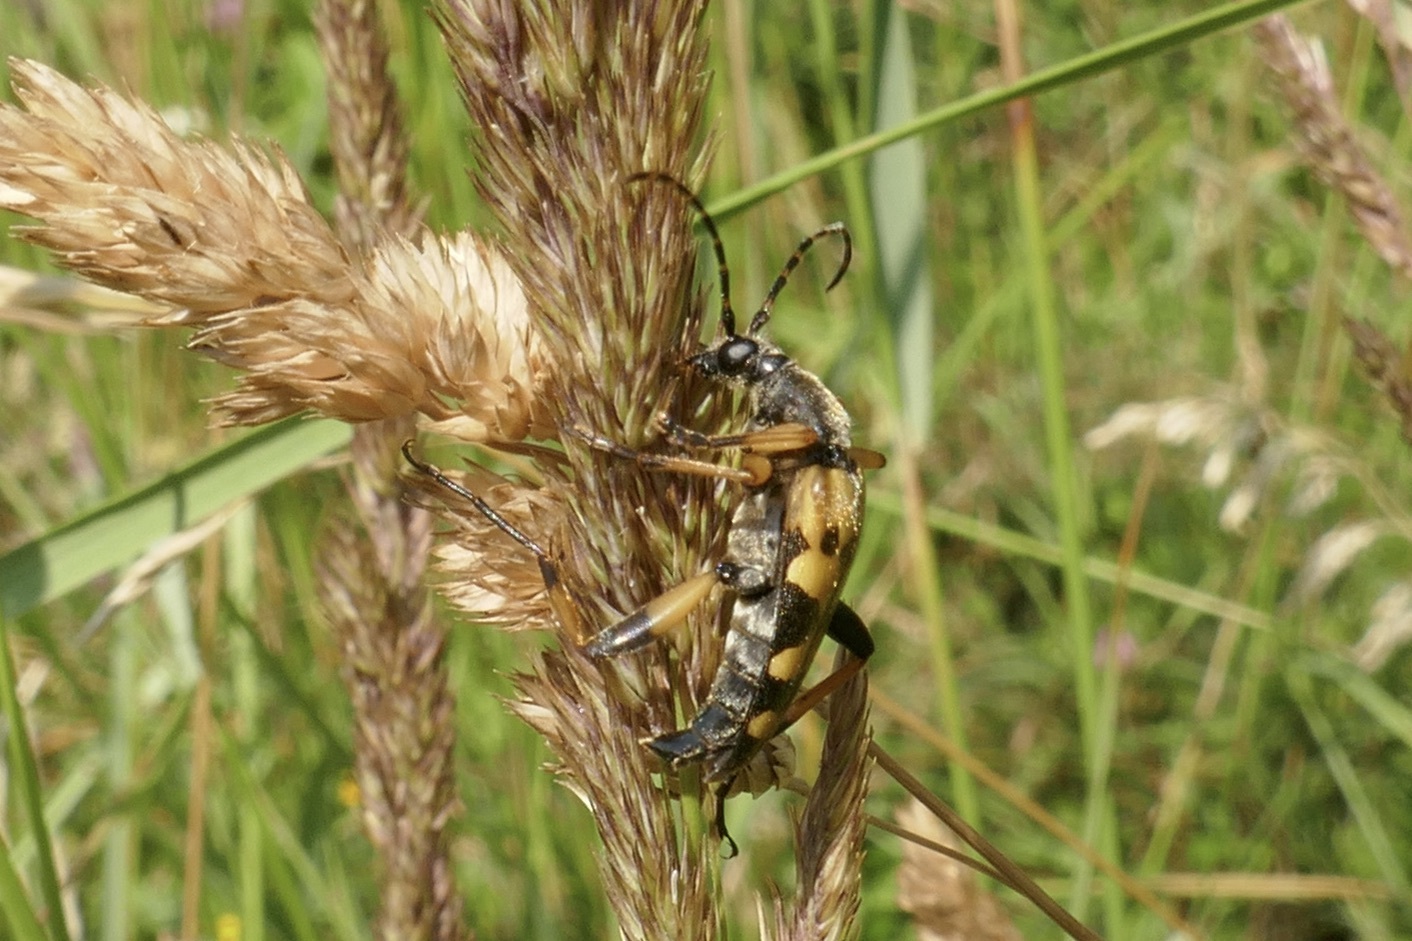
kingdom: Animalia
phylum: Arthropoda
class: Insecta
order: Coleoptera
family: Cerambycidae
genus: Rutpela
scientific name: Rutpela maculata
